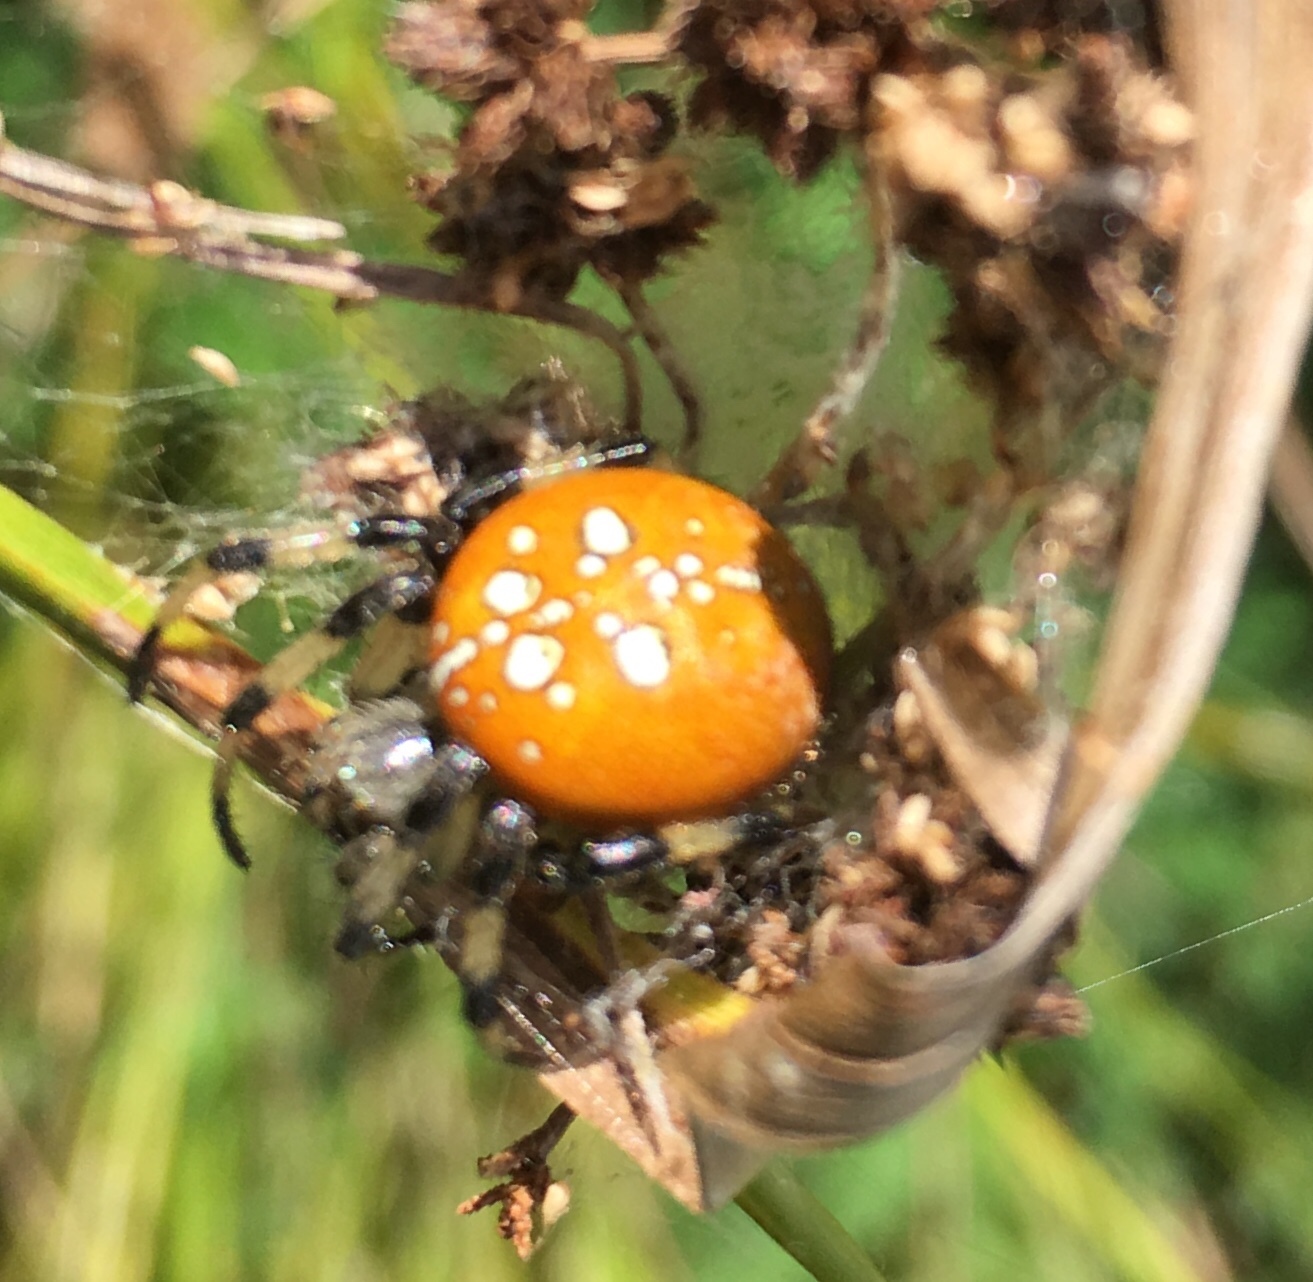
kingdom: Animalia
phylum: Arthropoda
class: Arachnida
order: Araneae
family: Araneidae
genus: Araneus
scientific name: Araneus trifolium
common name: Shamrock orbweaver
